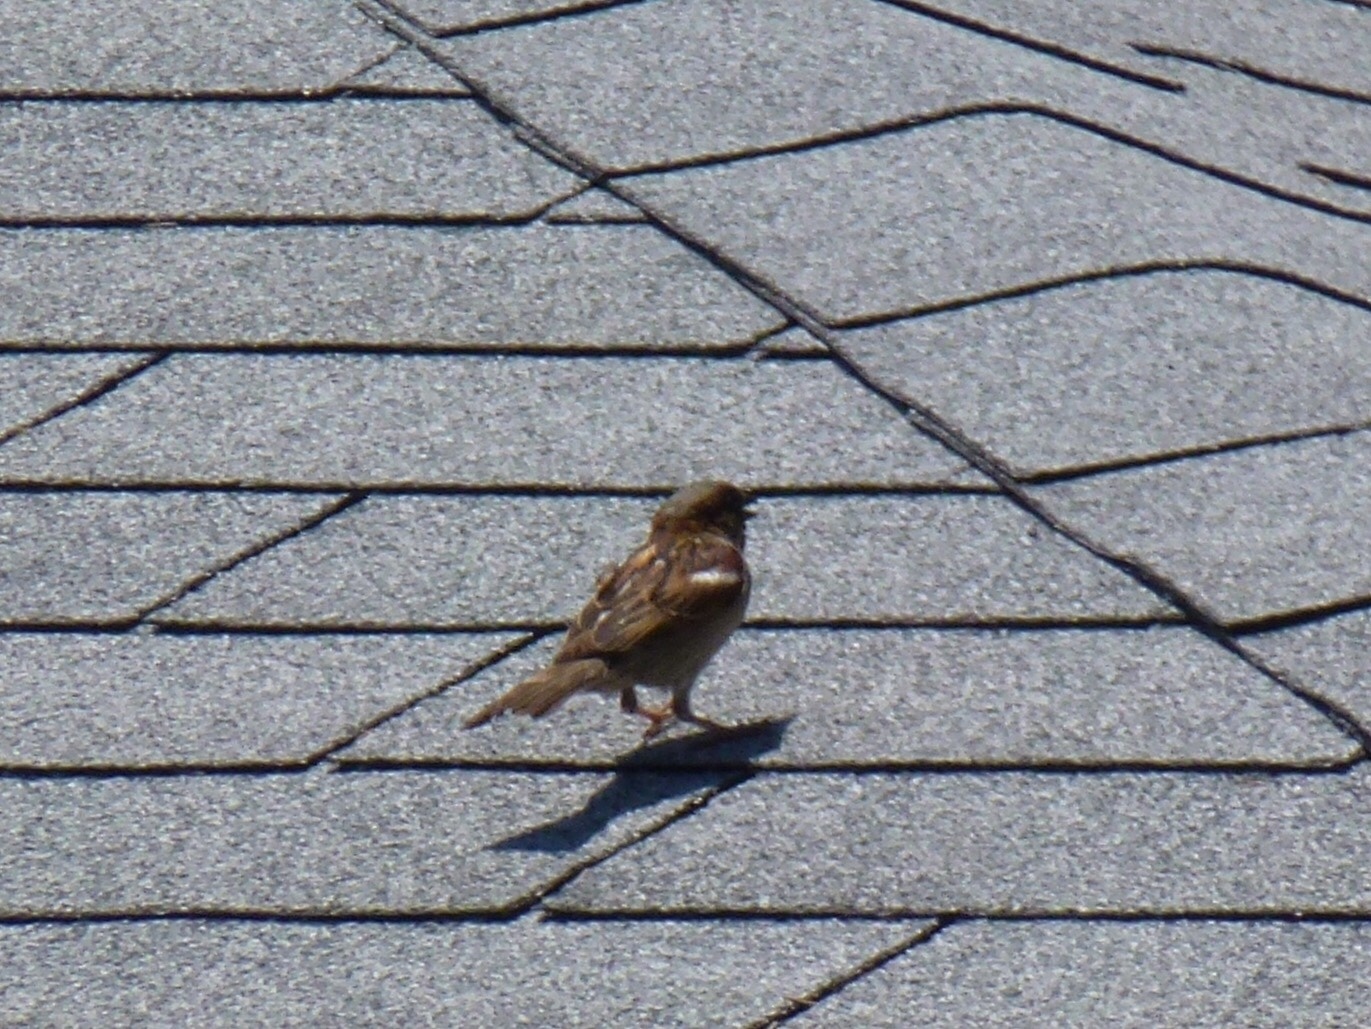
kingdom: Animalia
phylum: Chordata
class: Aves
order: Passeriformes
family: Passeridae
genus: Passer
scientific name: Passer domesticus
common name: House sparrow
